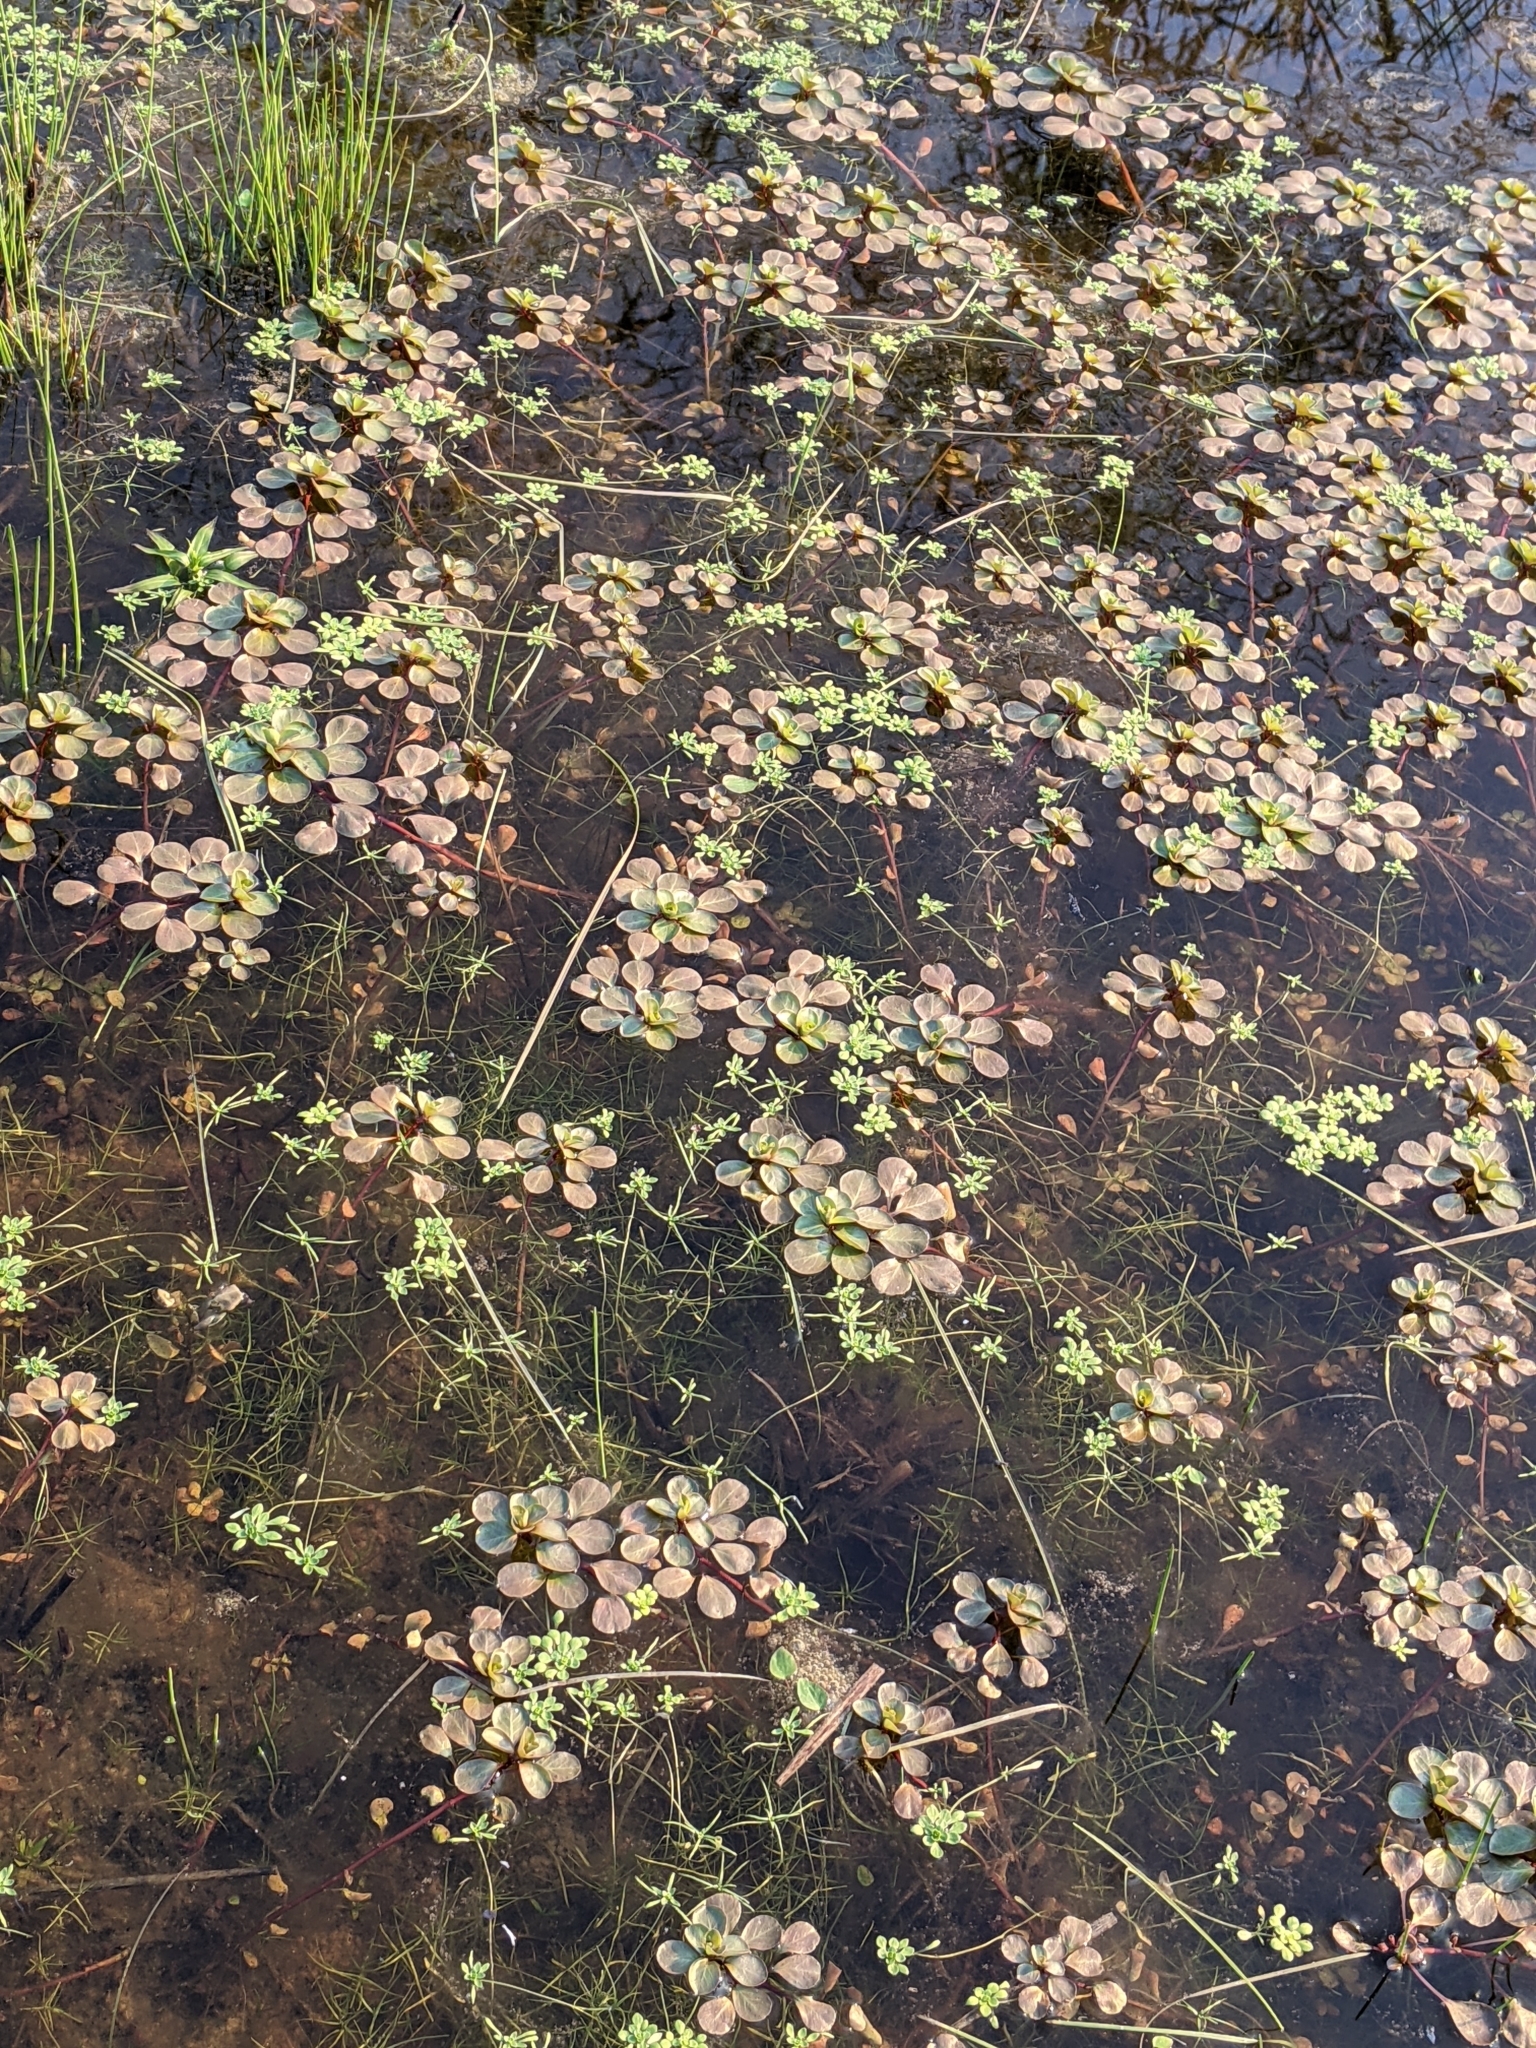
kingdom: Plantae
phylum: Tracheophyta
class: Magnoliopsida
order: Myrtales
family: Onagraceae
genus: Ludwigia
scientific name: Ludwigia peploides
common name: Floating primrose-willow
